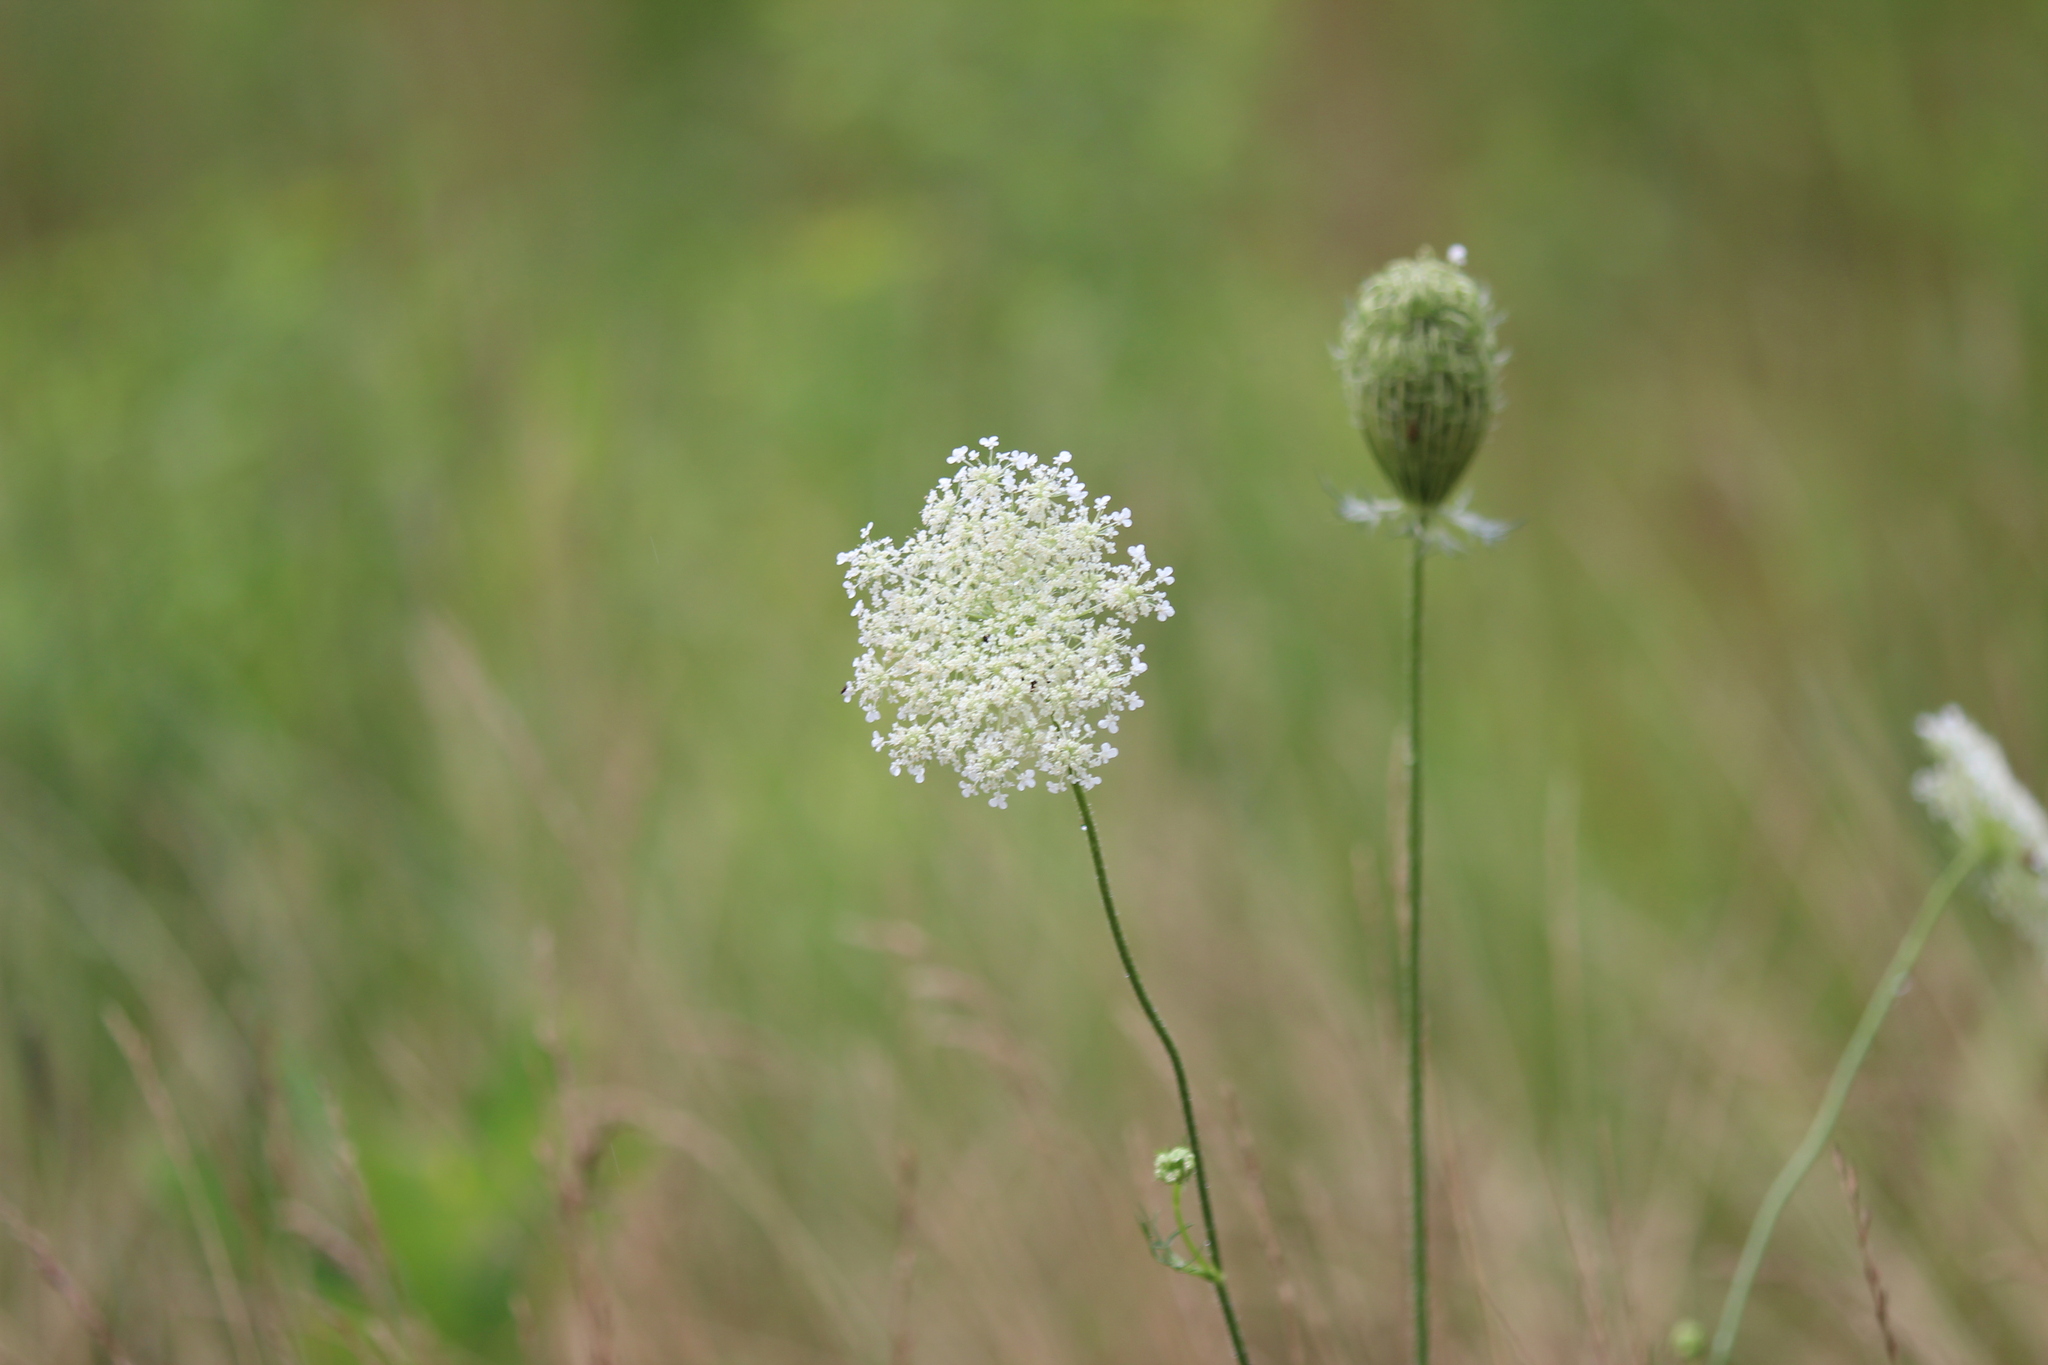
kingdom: Plantae
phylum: Tracheophyta
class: Magnoliopsida
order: Apiales
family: Apiaceae
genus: Daucus
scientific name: Daucus carota
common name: Wild carrot
